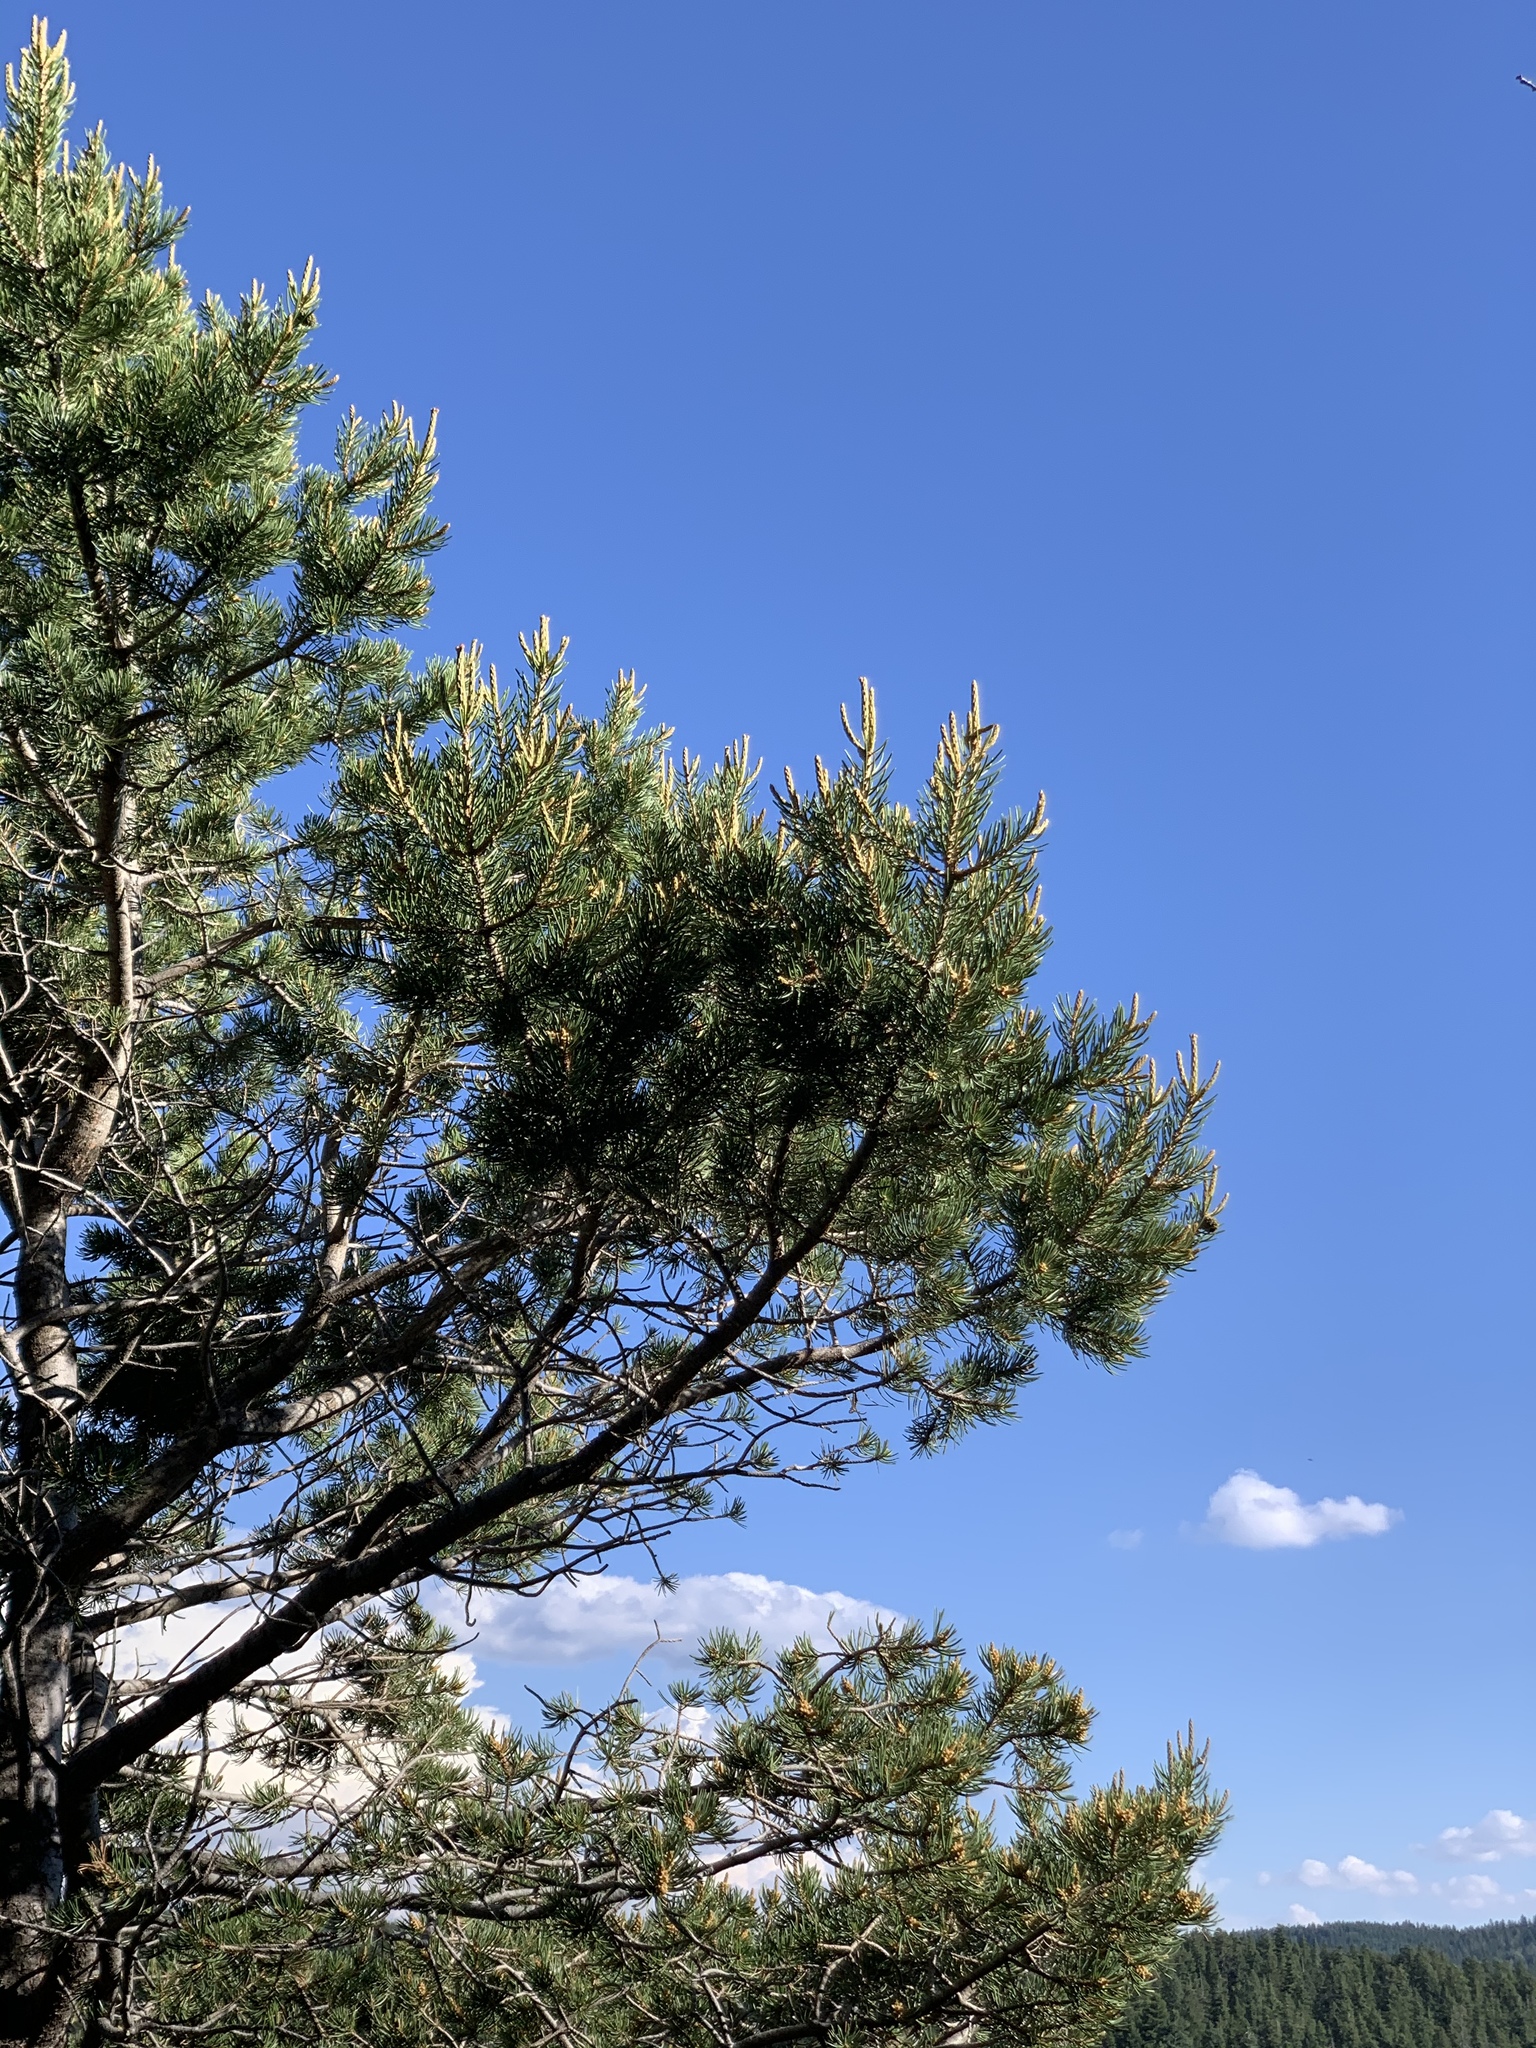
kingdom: Plantae
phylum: Tracheophyta
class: Pinopsida
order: Pinales
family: Pinaceae
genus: Pinus
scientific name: Pinus edulis
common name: Colorado pinyon
